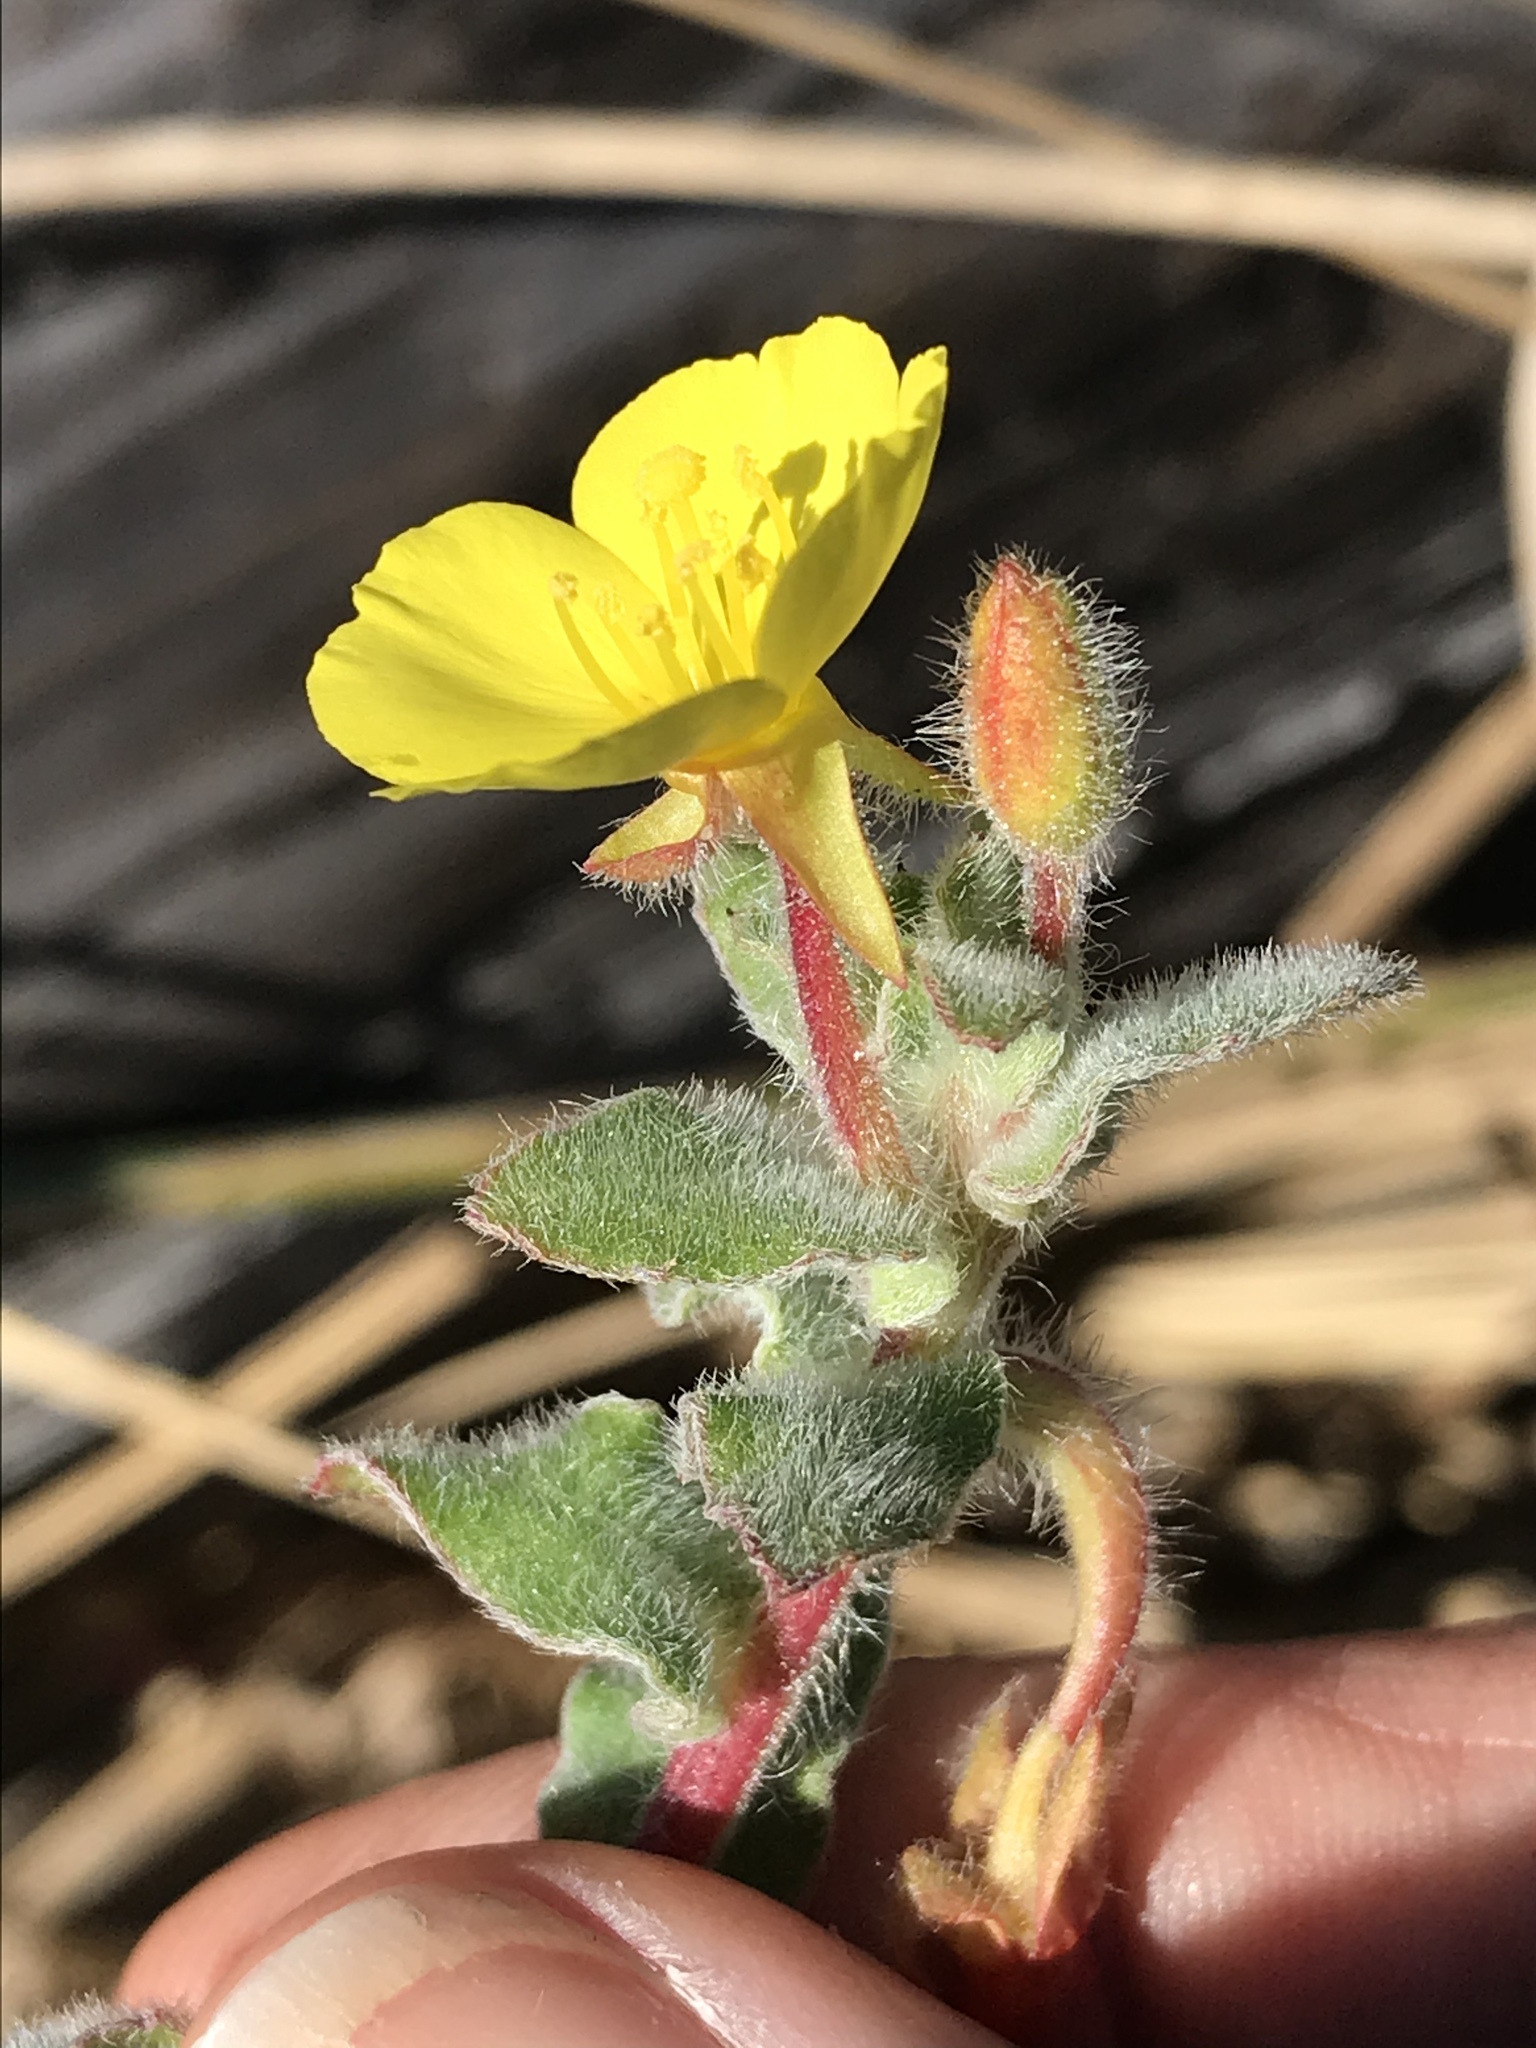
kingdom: Plantae
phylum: Tracheophyta
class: Magnoliopsida
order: Myrtales
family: Onagraceae
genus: Camissoniopsis
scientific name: Camissoniopsis cheiranthifolia
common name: Beach suncup
